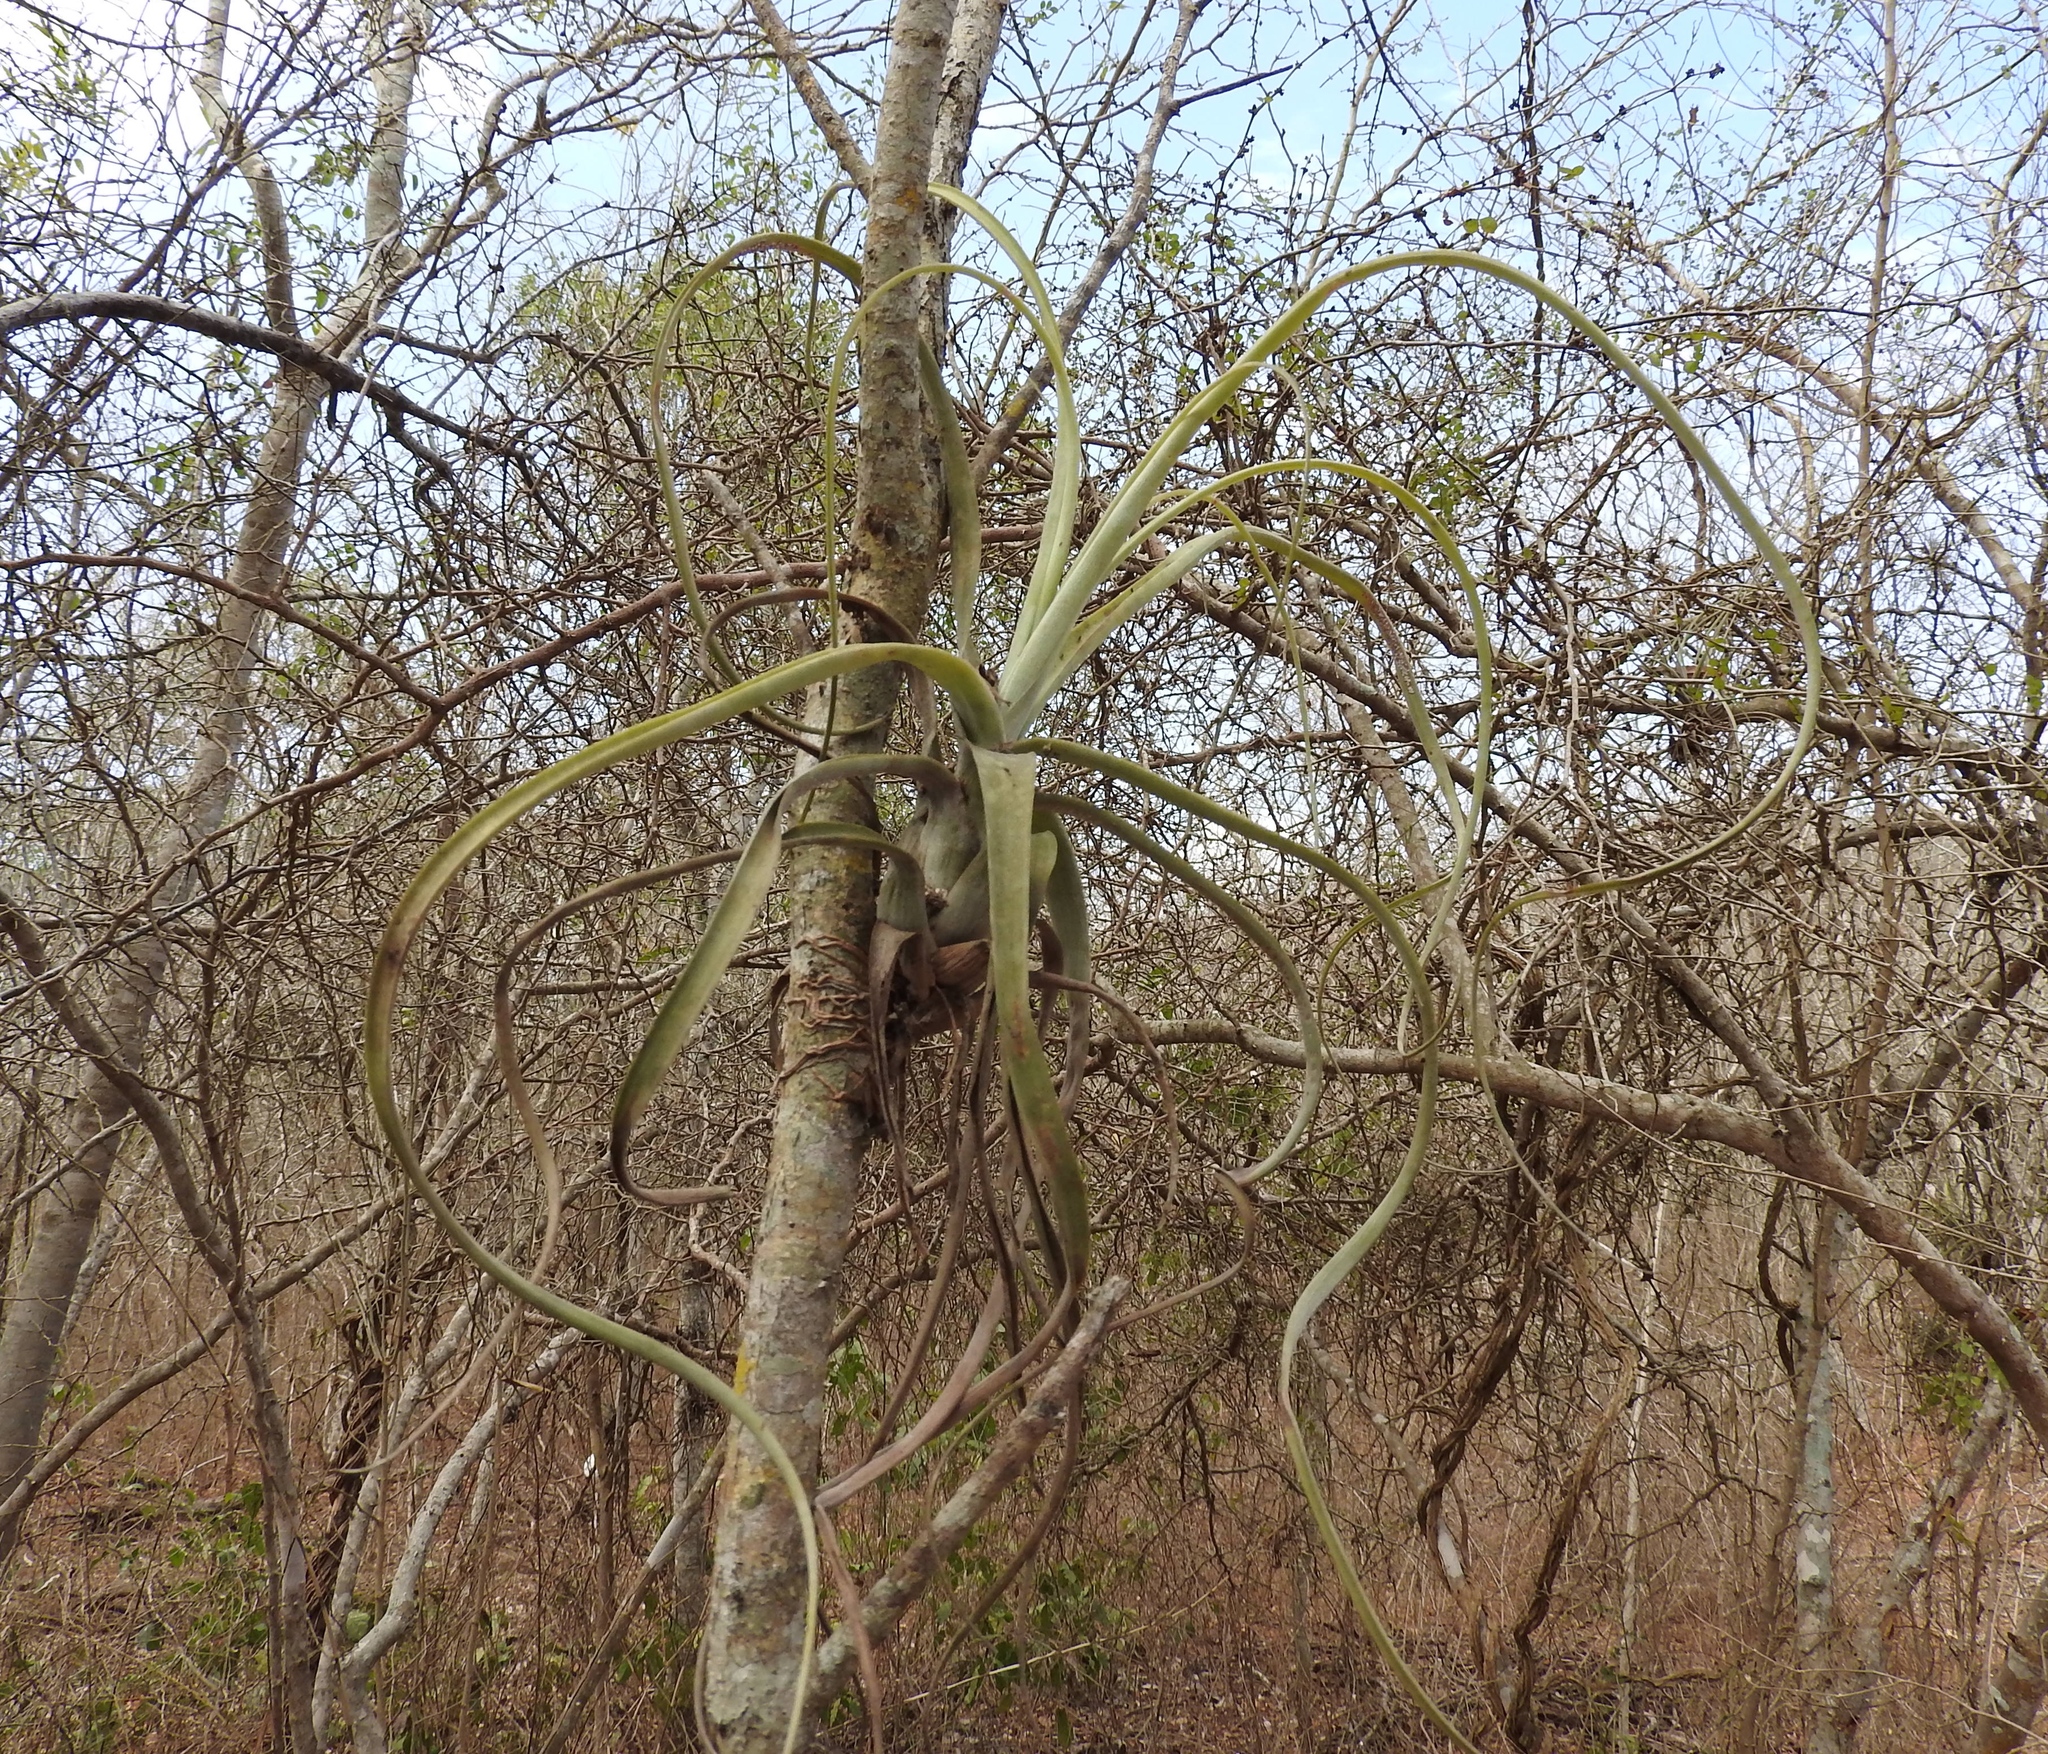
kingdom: Plantae
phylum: Tracheophyta
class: Liliopsida
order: Poales
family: Bromeliaceae
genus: Tillandsia
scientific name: Tillandsia balbisiana
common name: Northern needleleaf
